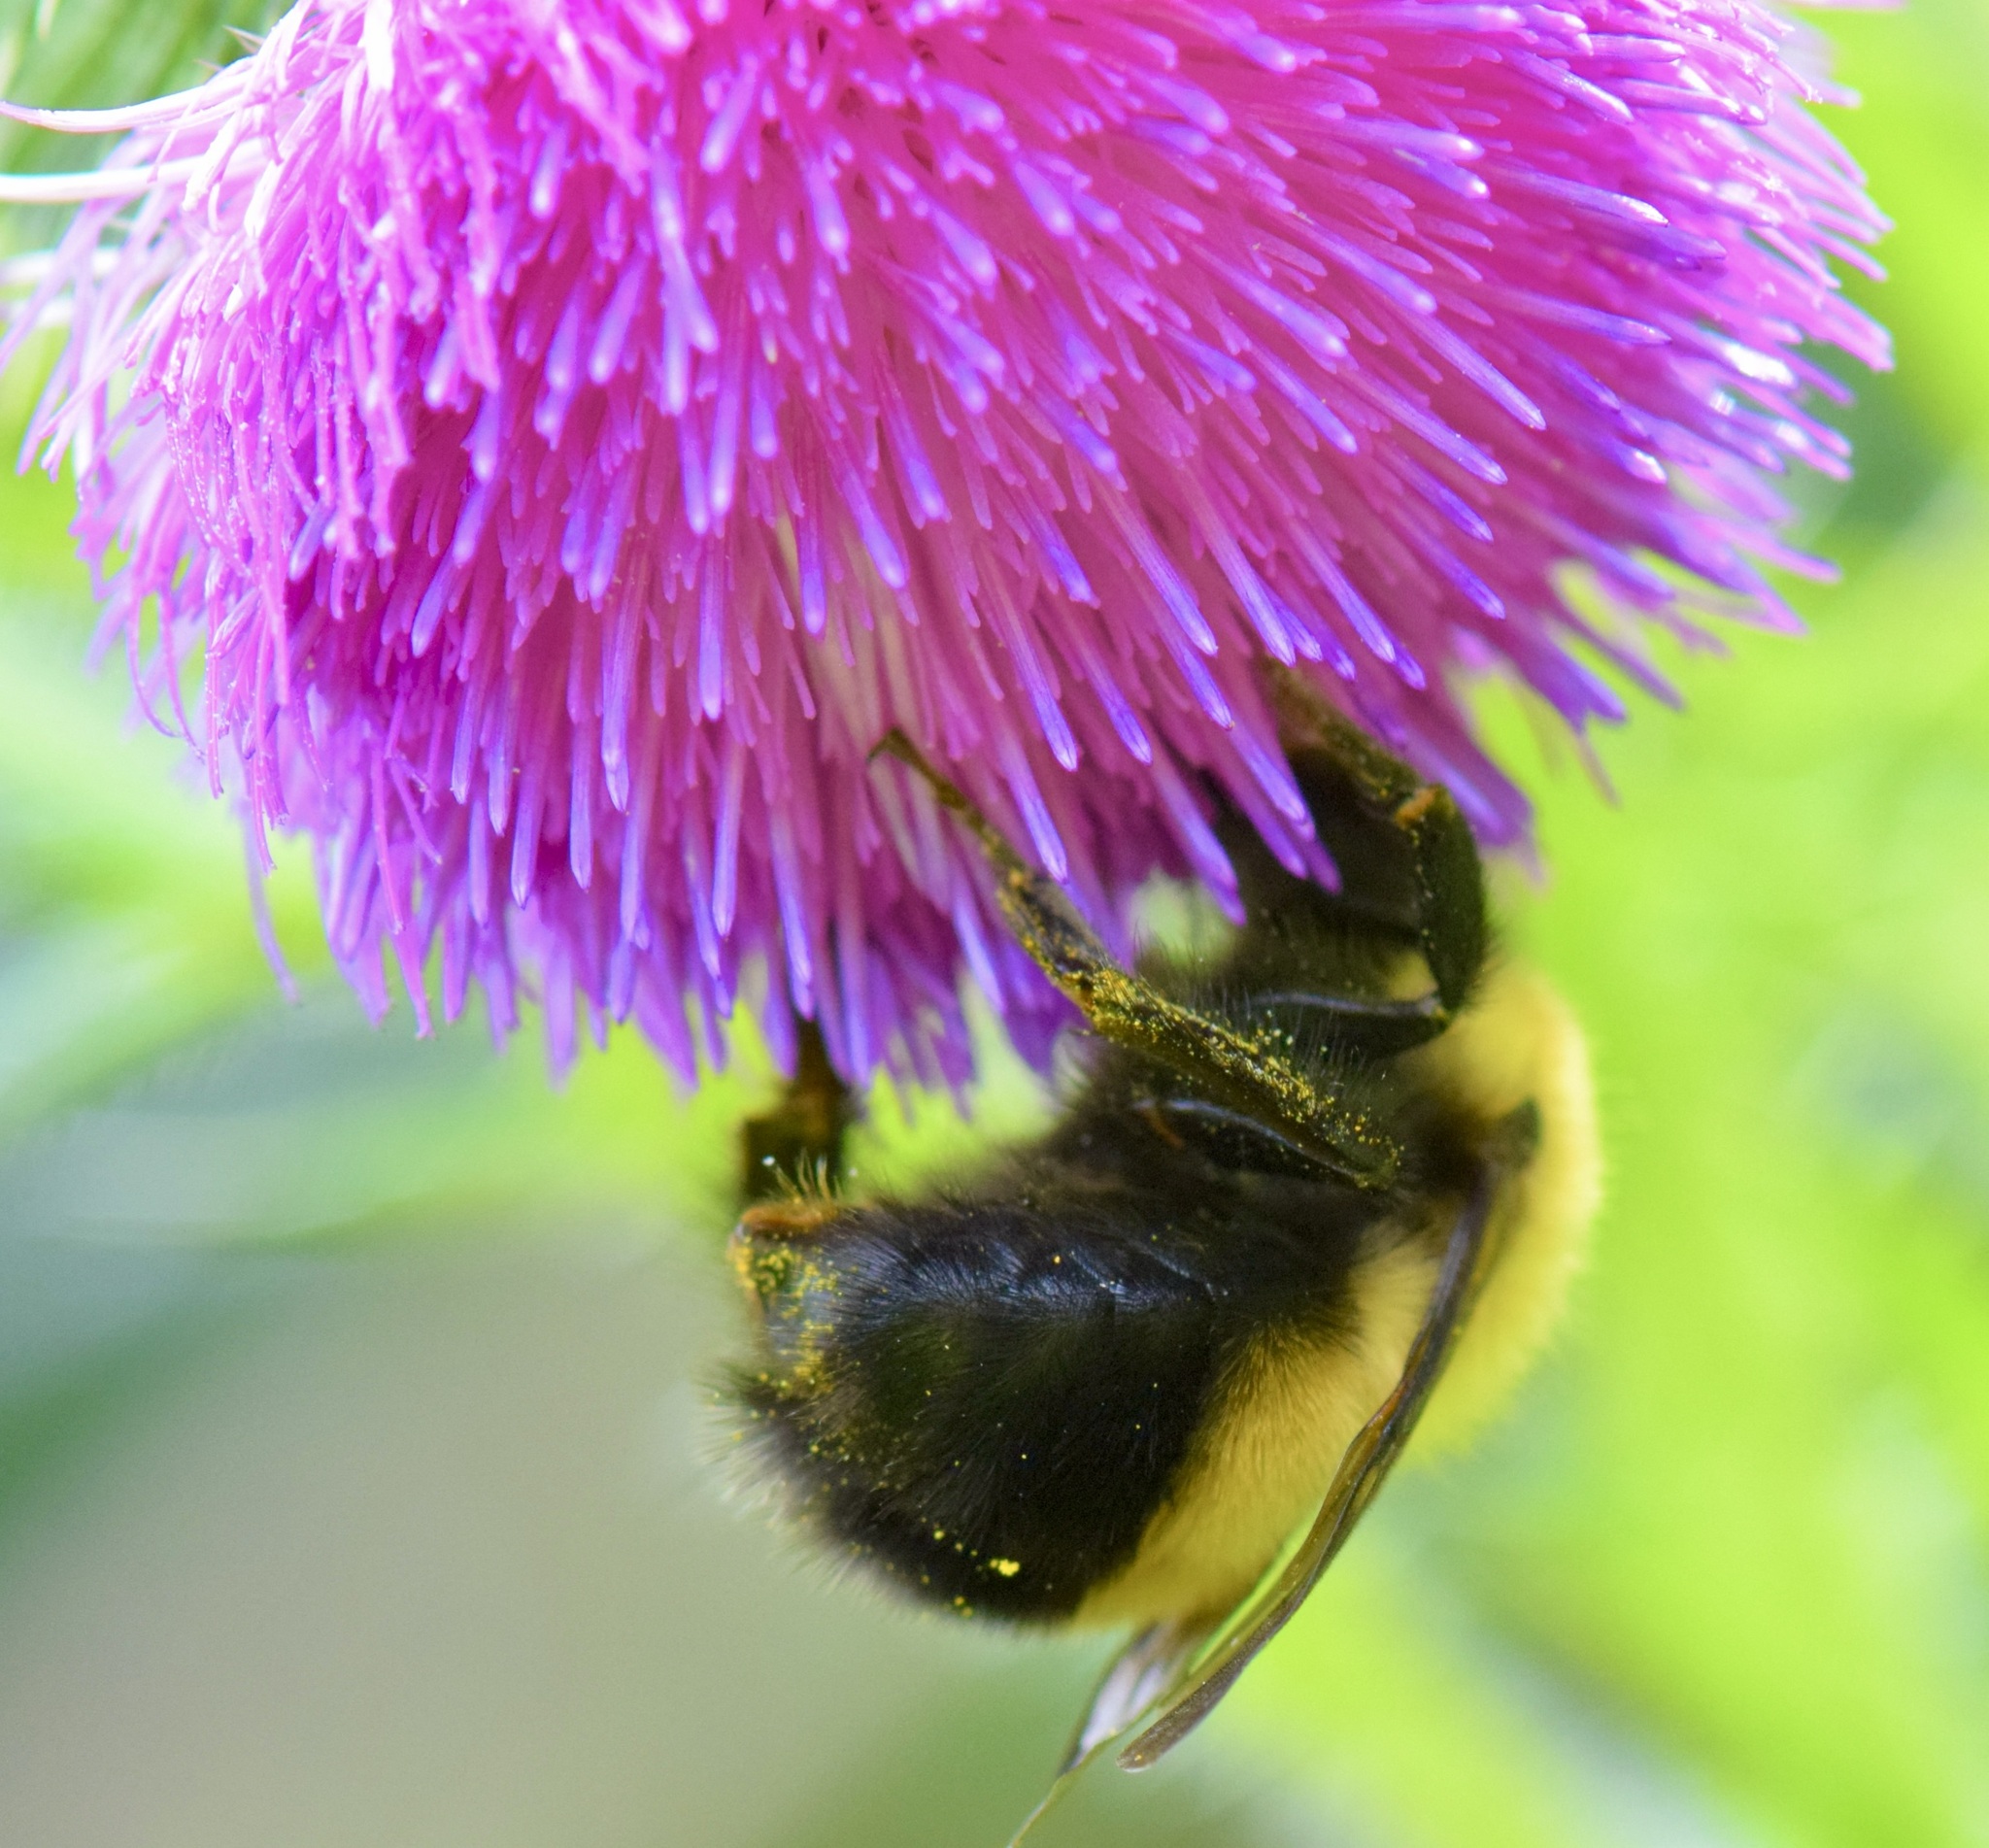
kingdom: Animalia
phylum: Arthropoda
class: Insecta
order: Hymenoptera
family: Apidae
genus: Bombus
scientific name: Bombus perplexus
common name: Confusing bumble bee
